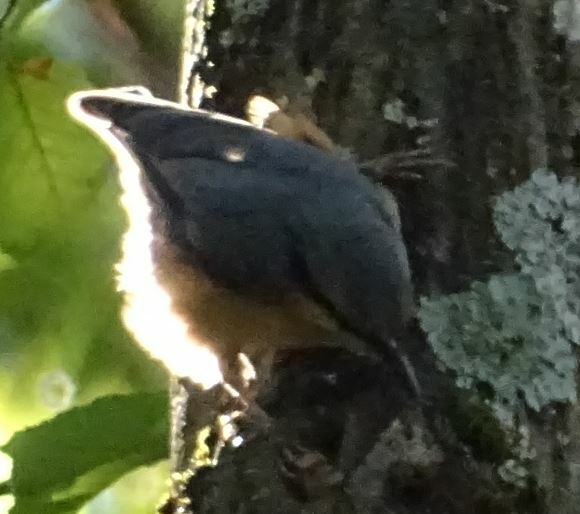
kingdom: Animalia
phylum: Chordata
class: Aves
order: Passeriformes
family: Sittidae
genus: Sitta
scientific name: Sitta europaea
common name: Eurasian nuthatch
